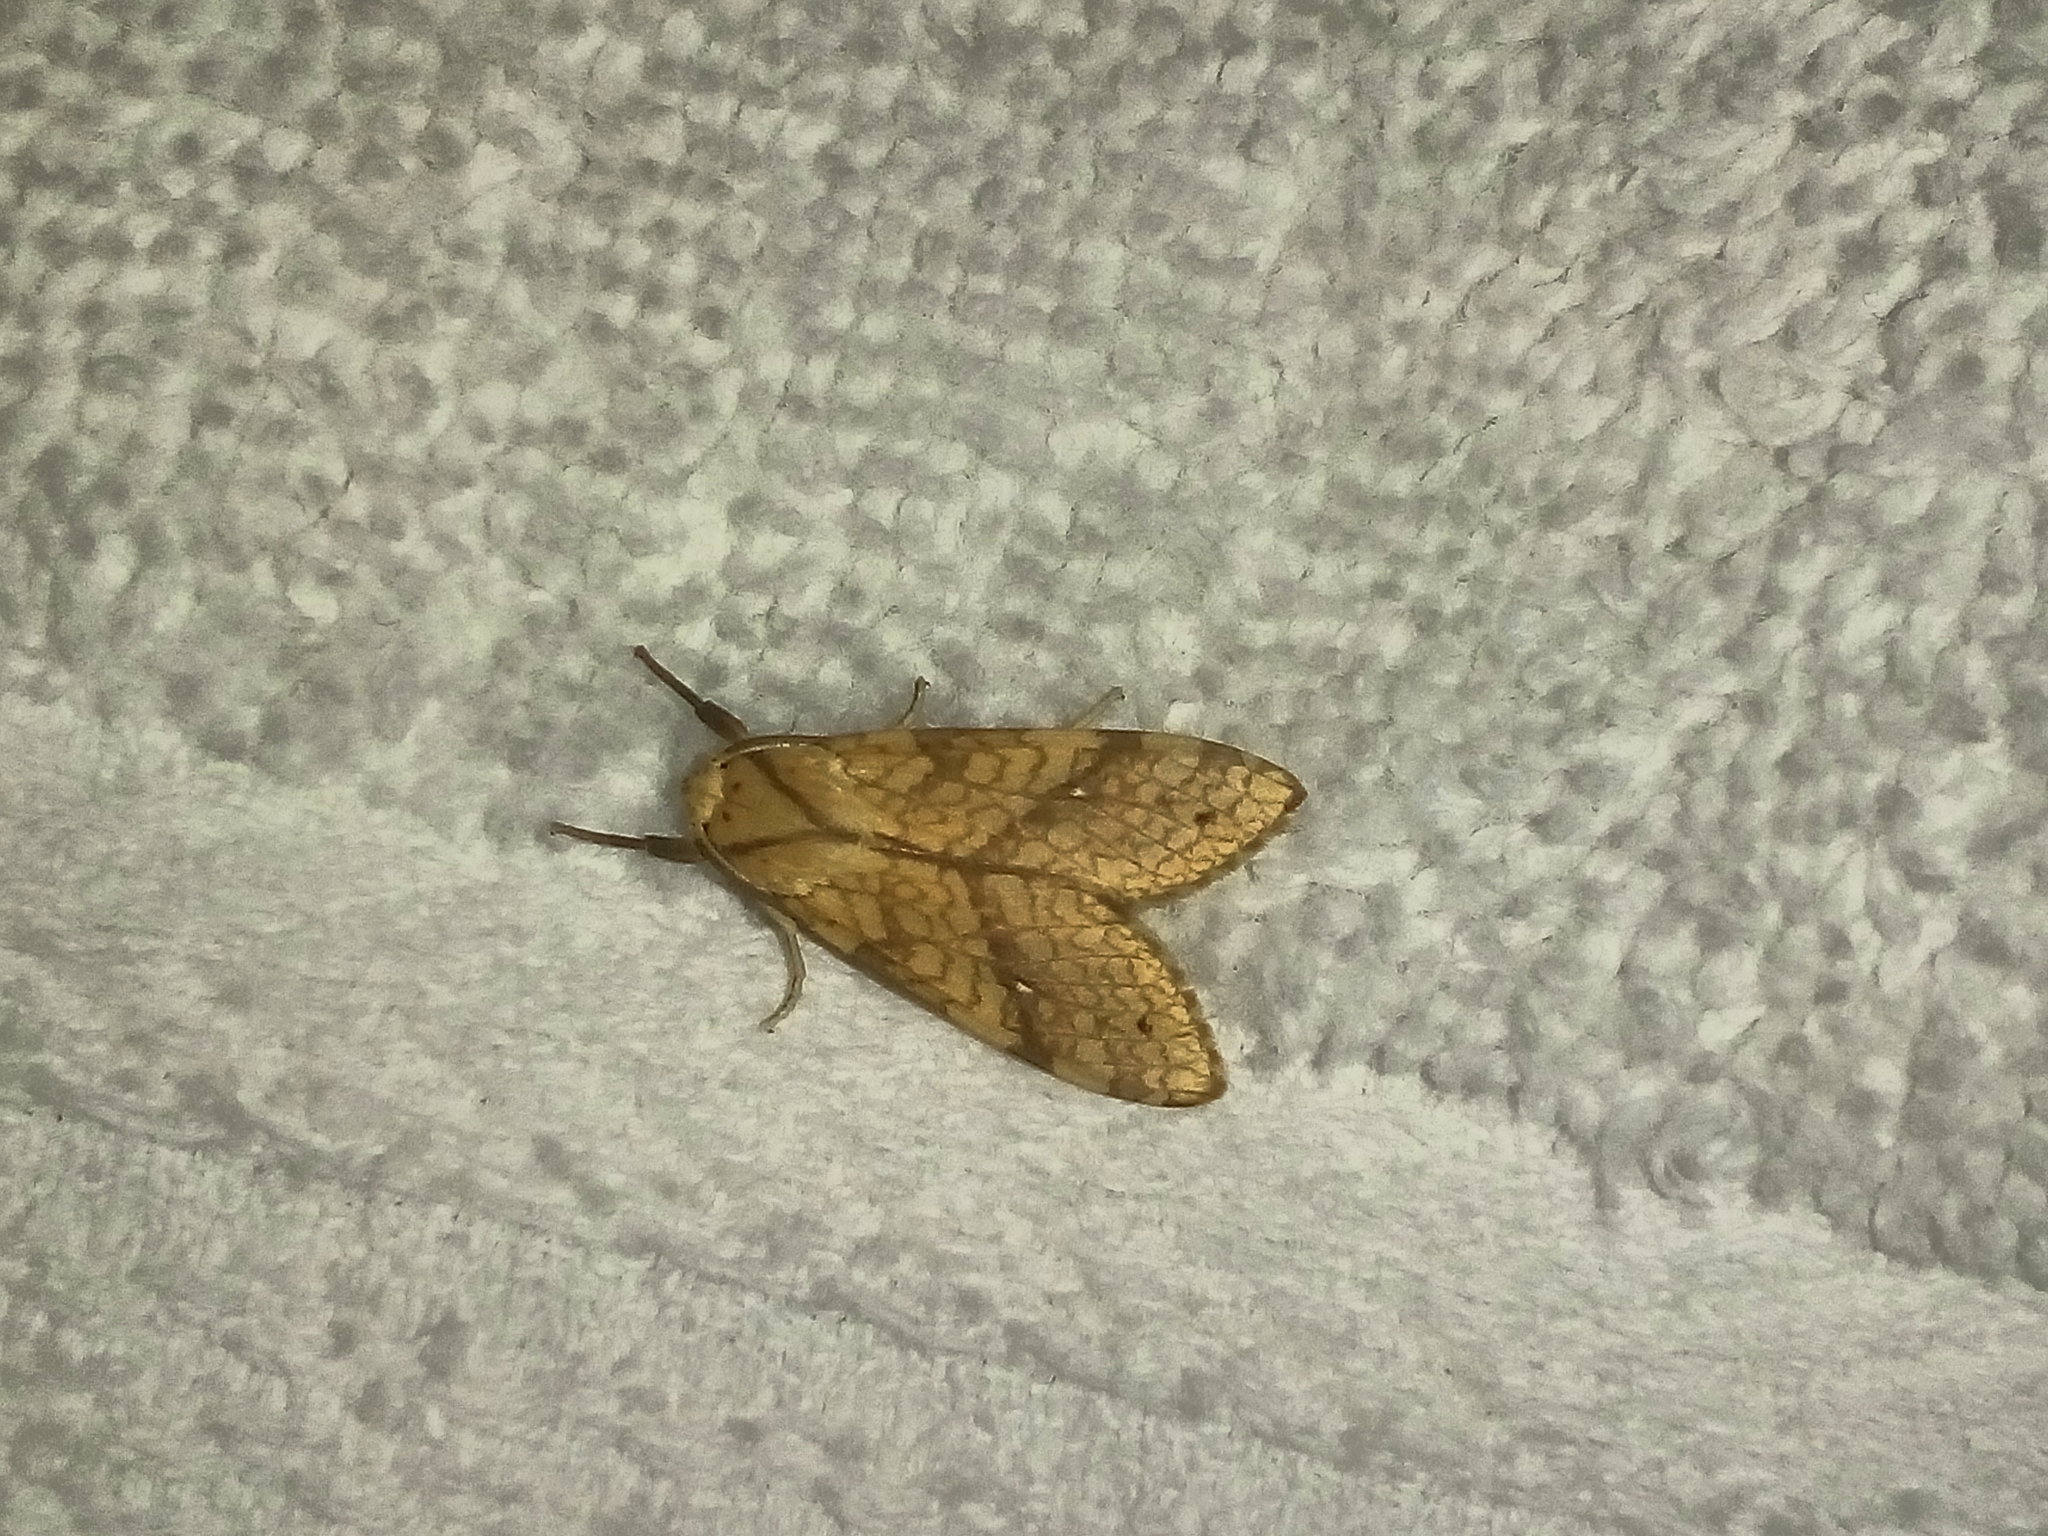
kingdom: Animalia
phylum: Arthropoda
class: Insecta
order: Lepidoptera
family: Erebidae
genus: Lophocampa
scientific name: Lophocampa annulosa
